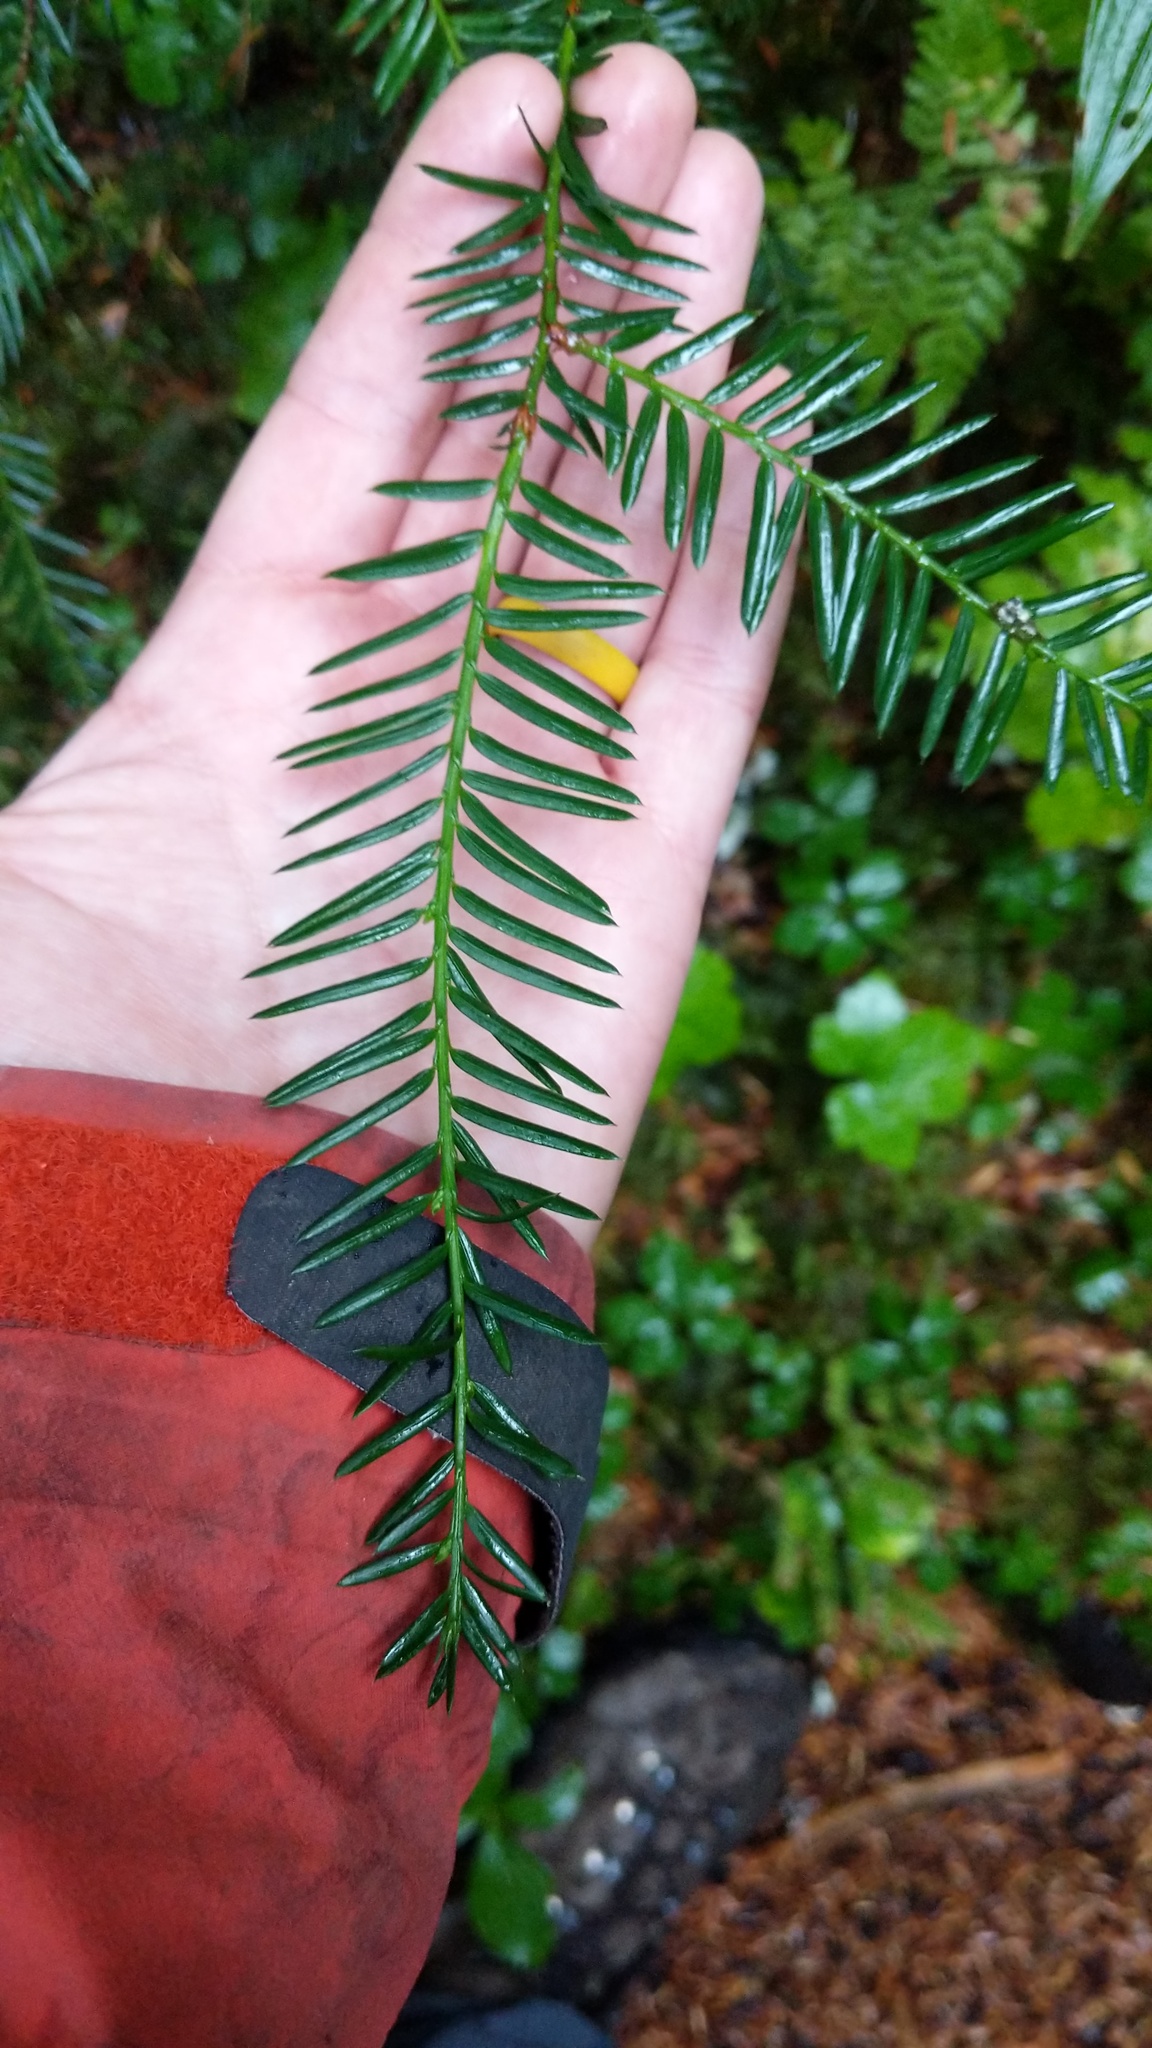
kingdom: Plantae
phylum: Tracheophyta
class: Pinopsida
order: Pinales
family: Taxaceae
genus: Taxus
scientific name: Taxus brevifolia
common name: Pacific yew
